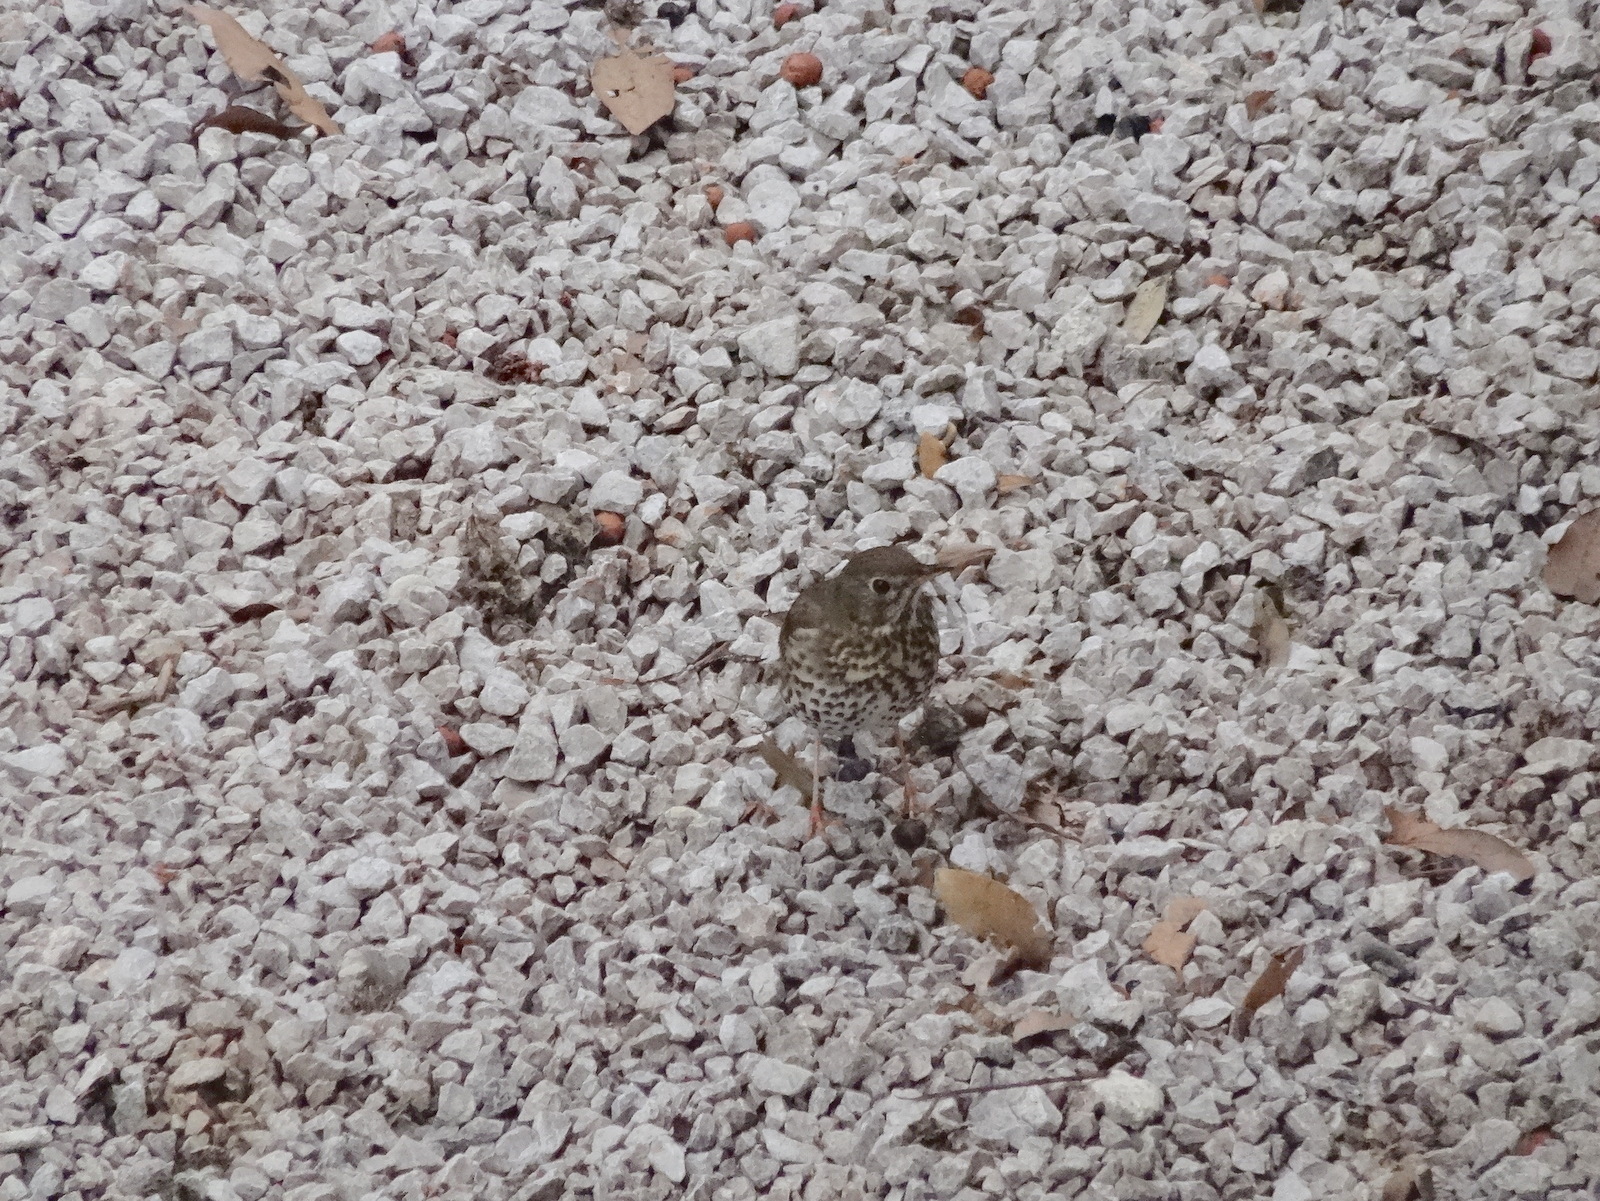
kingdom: Animalia
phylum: Chordata
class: Aves
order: Passeriformes
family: Turdidae
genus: Turdus
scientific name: Turdus philomelos
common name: Song thrush
